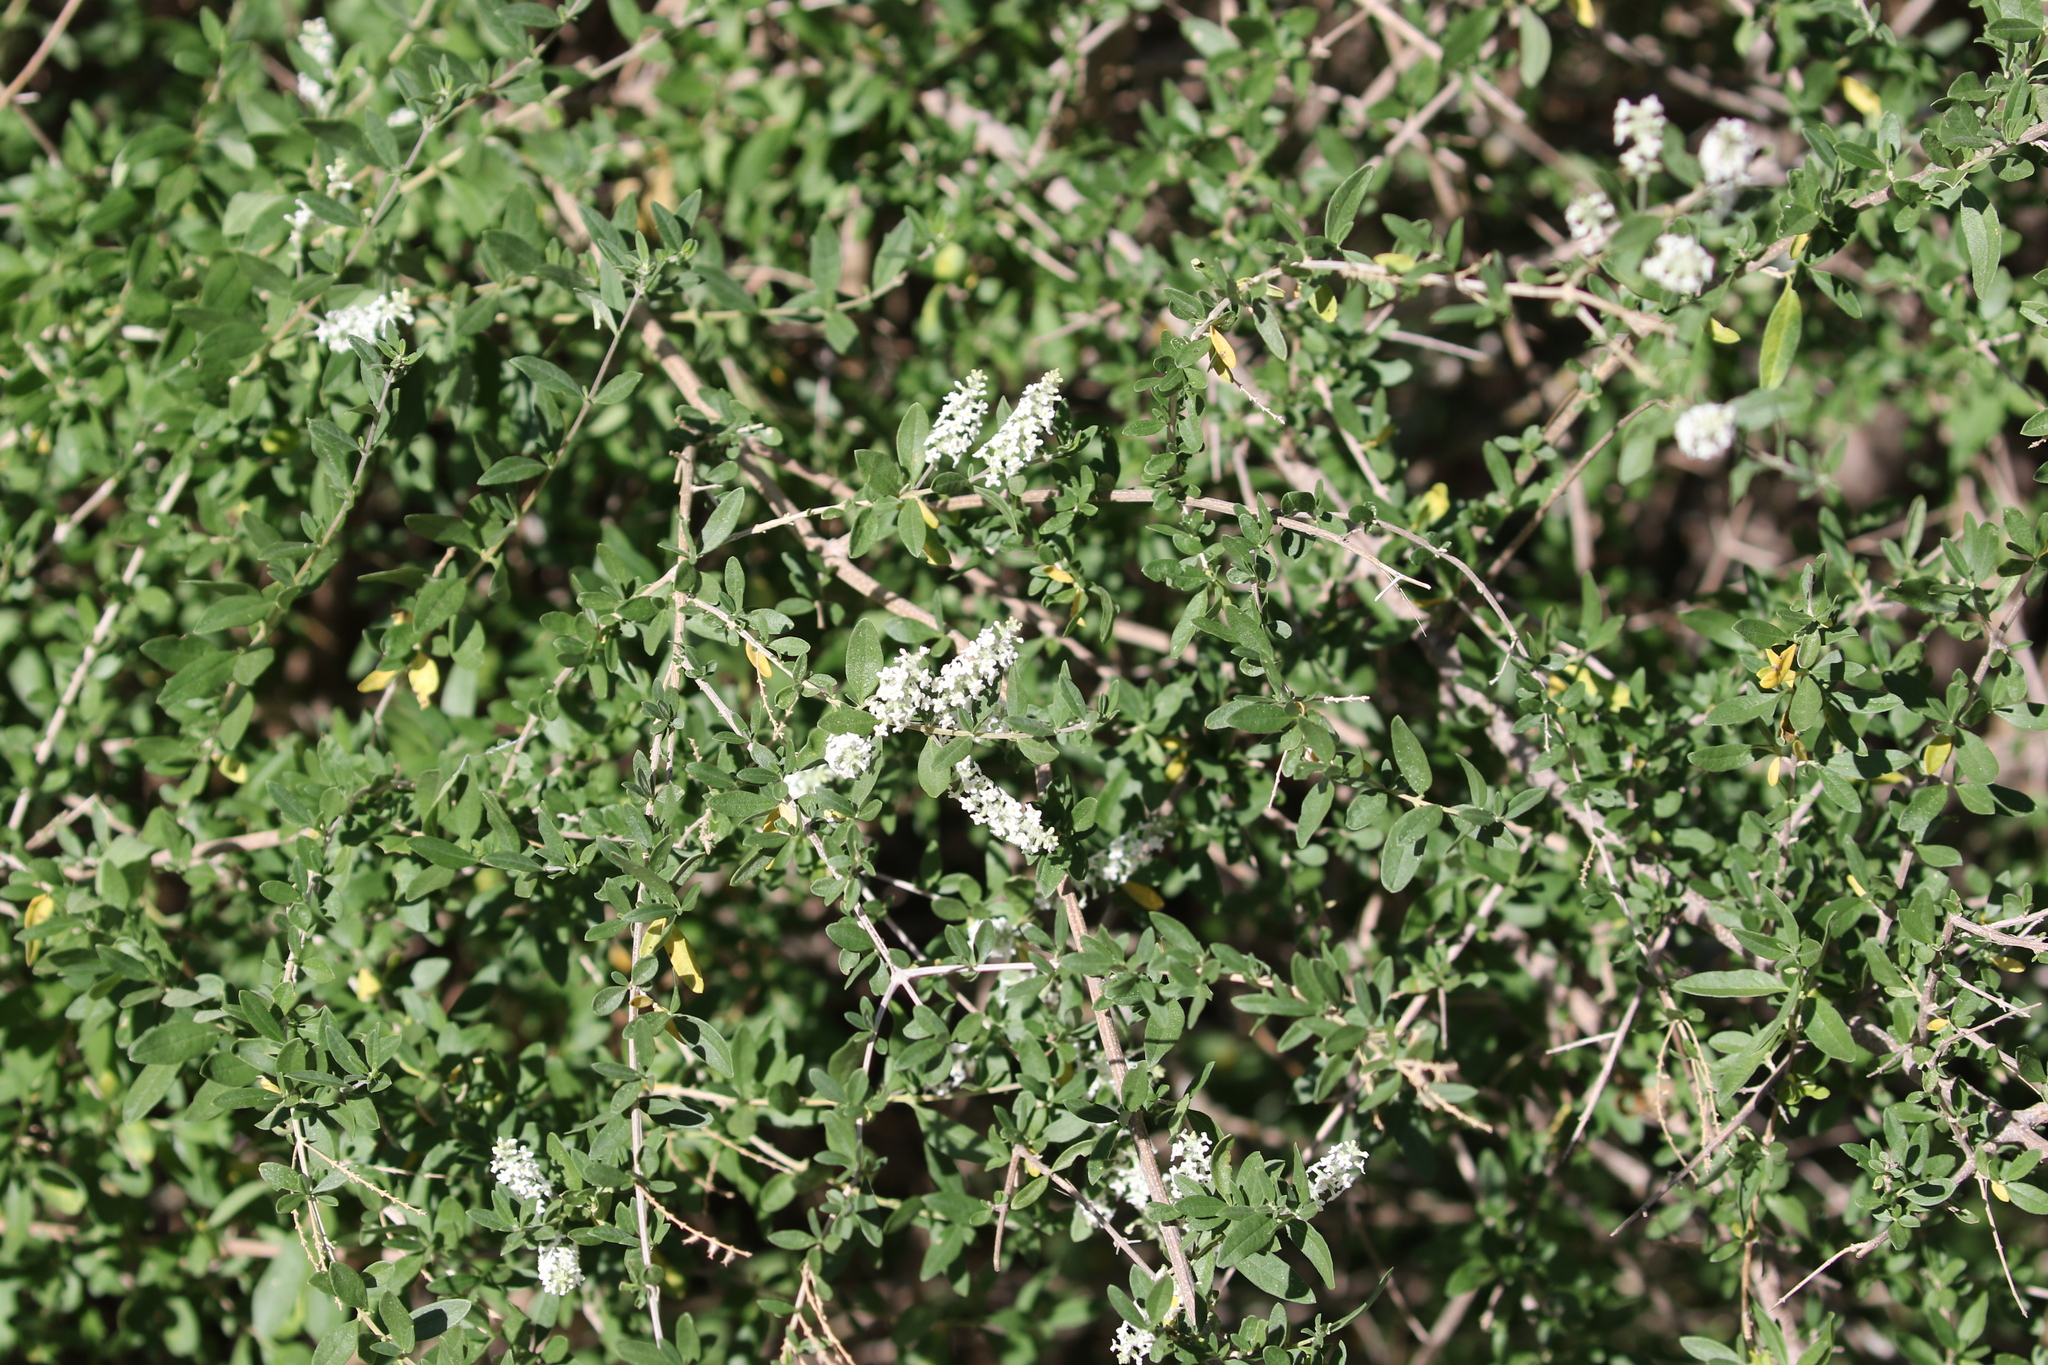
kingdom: Plantae
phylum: Tracheophyta
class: Magnoliopsida
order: Lamiales
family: Verbenaceae
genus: Aloysia
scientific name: Aloysia gratissima
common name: Common bee-brush
